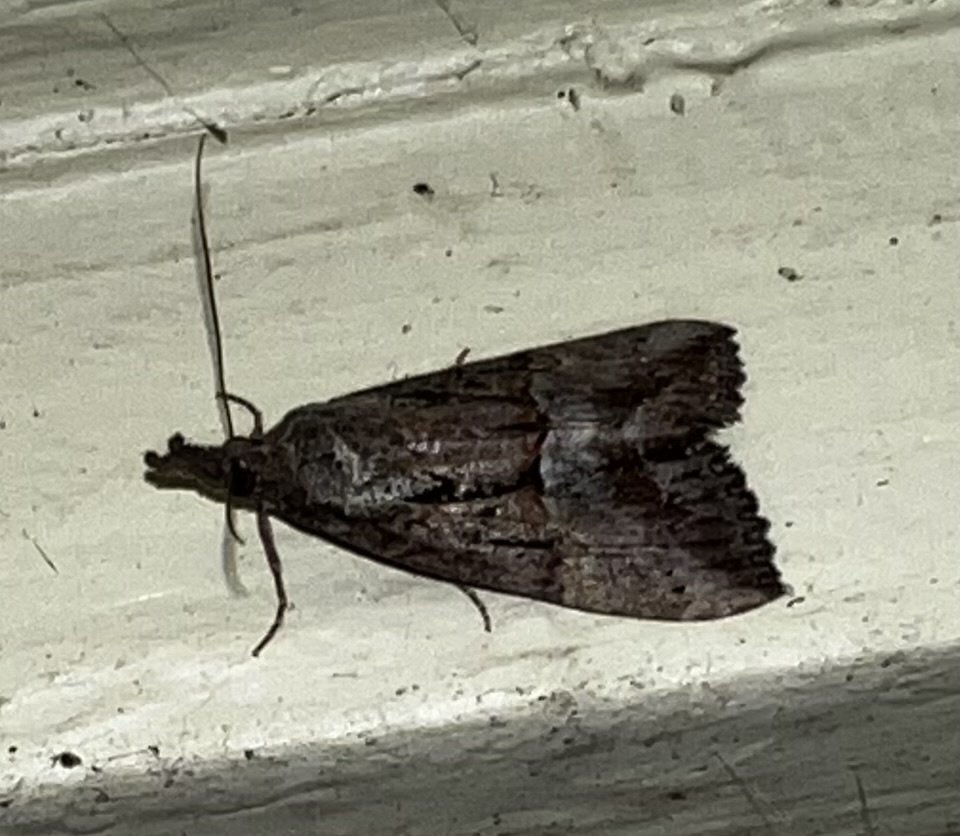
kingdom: Animalia
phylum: Arthropoda
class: Insecta
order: Lepidoptera
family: Erebidae
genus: Hypena
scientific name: Hypena scabra
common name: Green cloverworm
